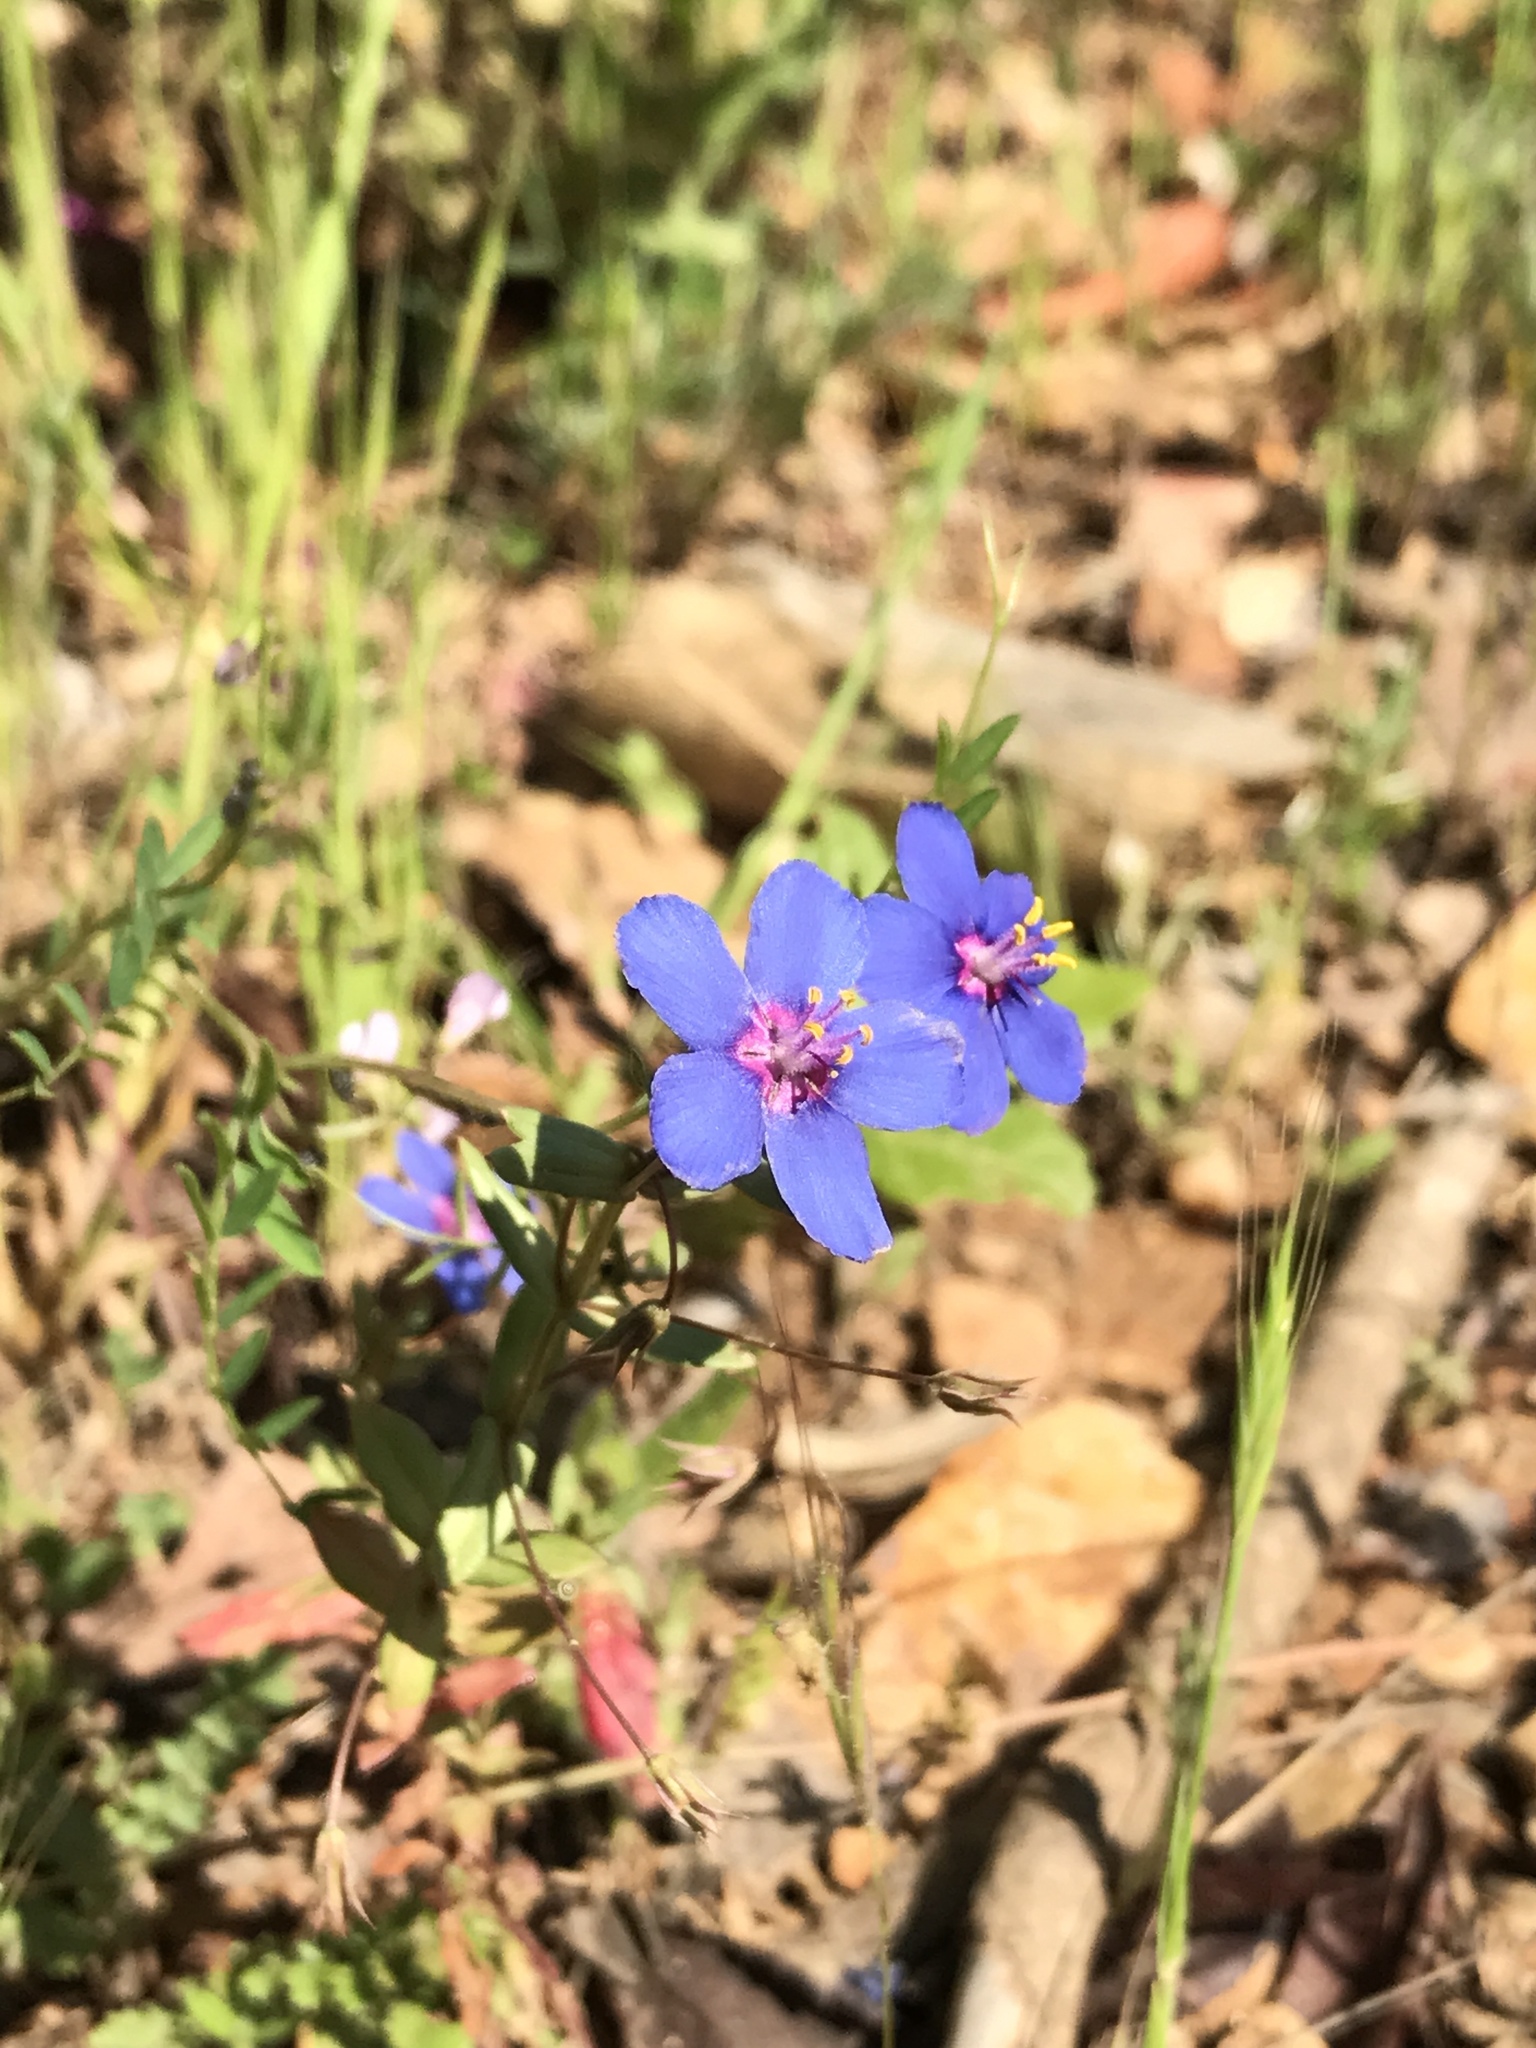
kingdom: Plantae
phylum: Tracheophyta
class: Magnoliopsida
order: Ericales
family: Primulaceae
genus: Lysimachia
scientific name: Lysimachia arvensis
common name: Scarlet pimpernel
